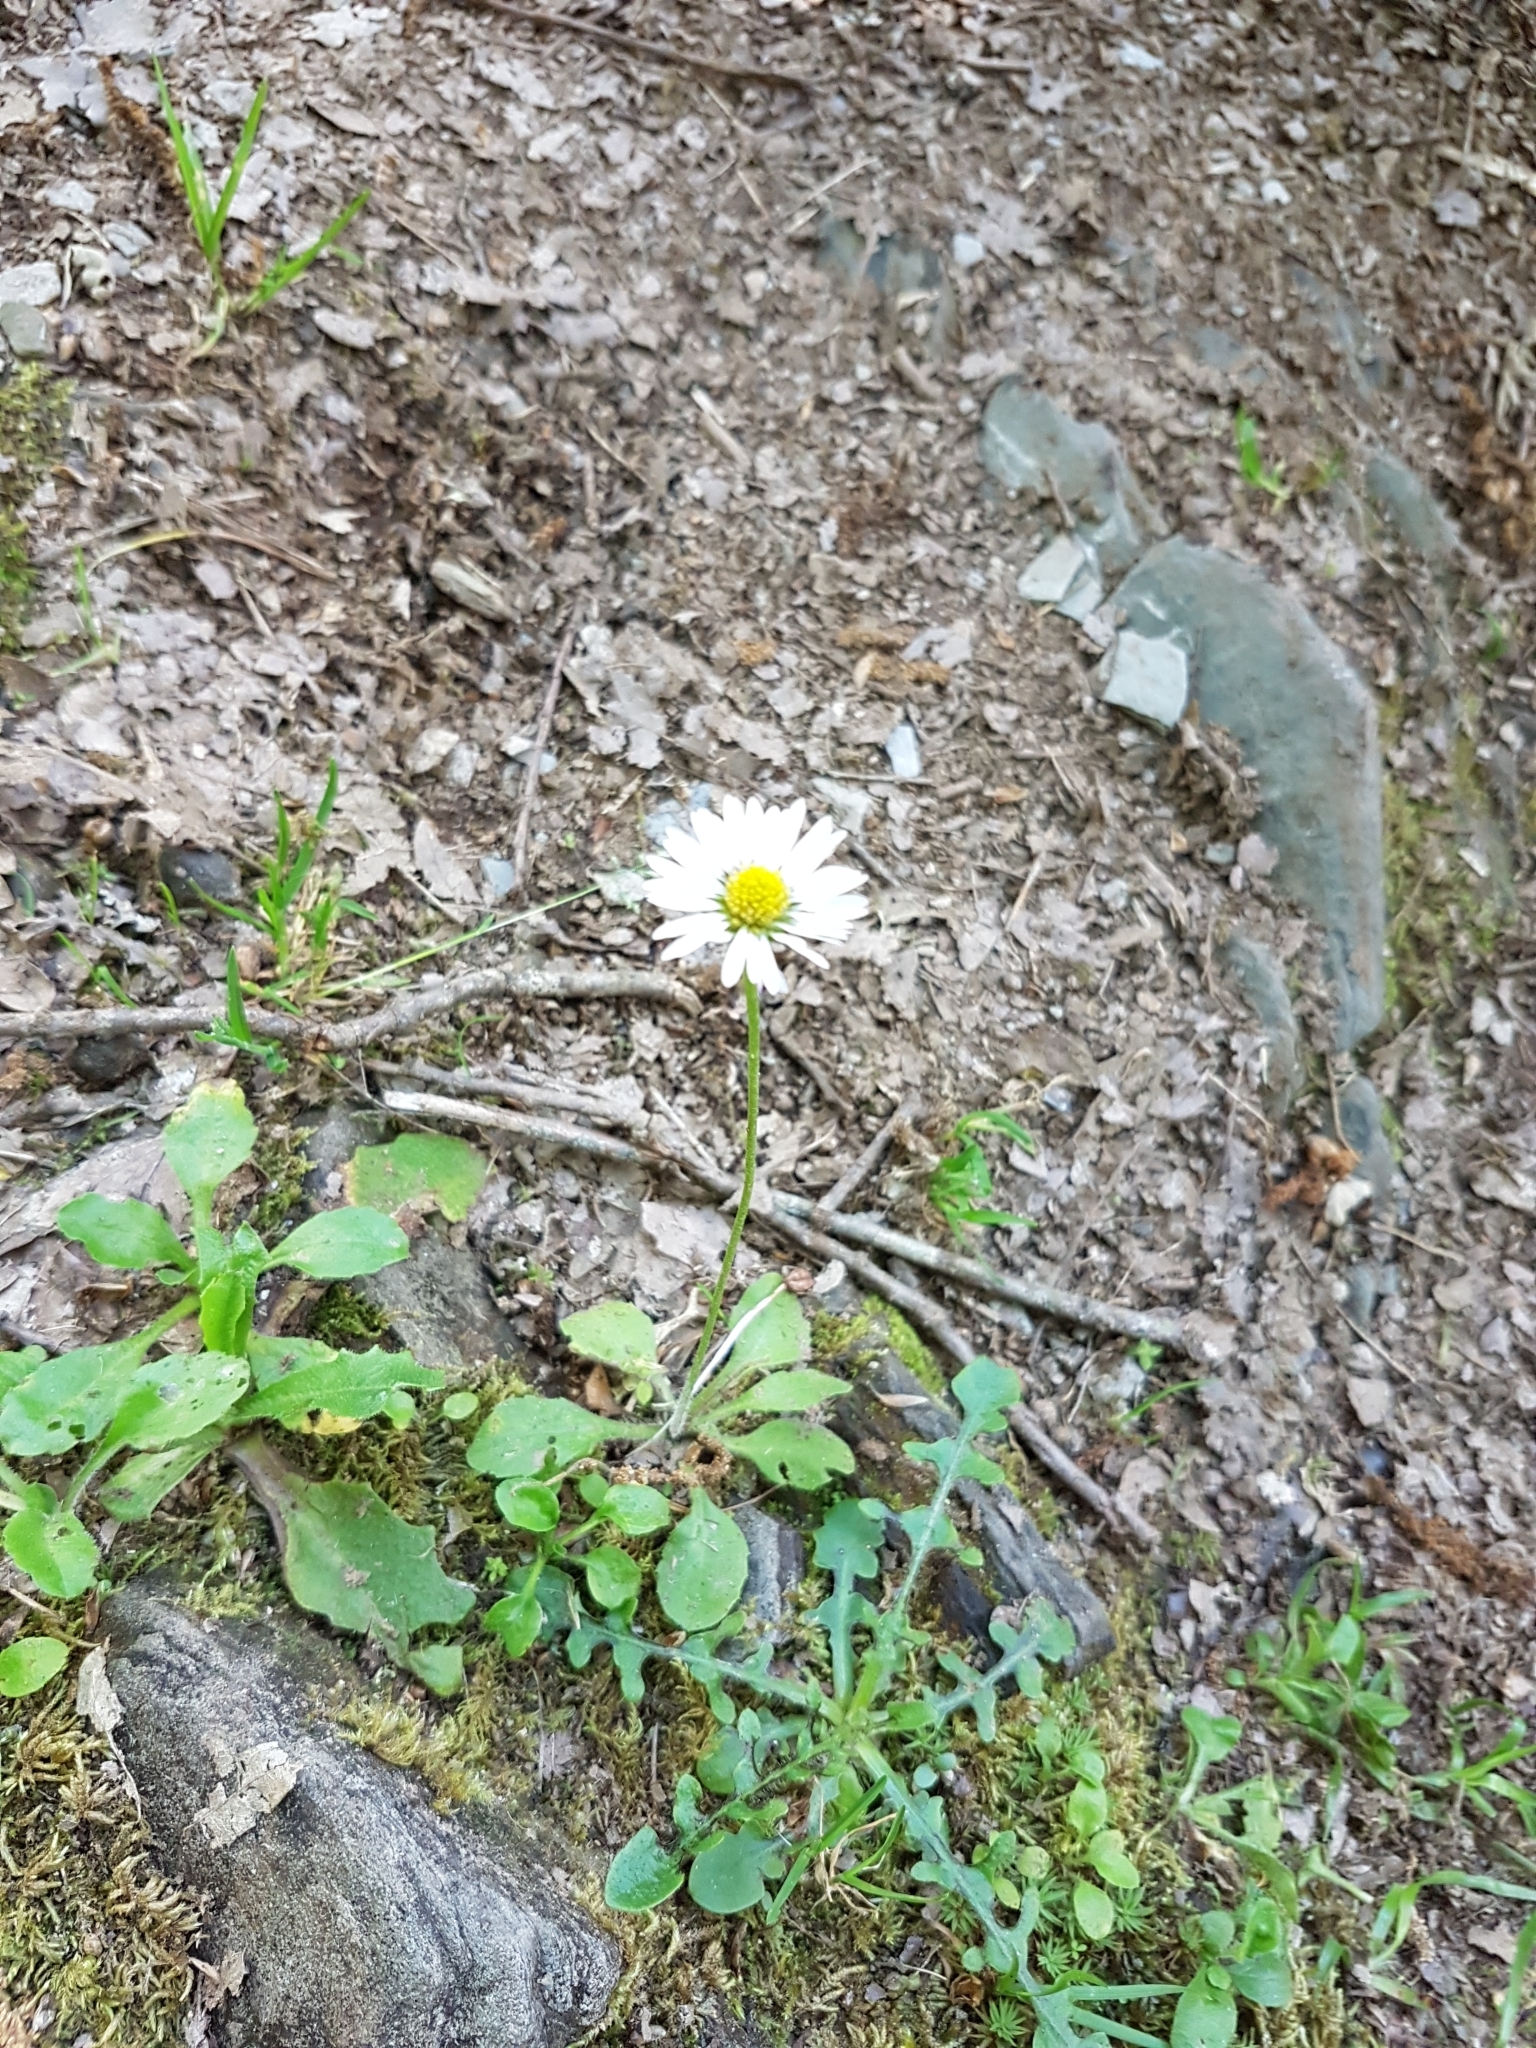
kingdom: Plantae
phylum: Tracheophyta
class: Magnoliopsida
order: Asterales
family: Asteraceae
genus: Bellis
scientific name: Bellis perennis
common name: Lawndaisy
